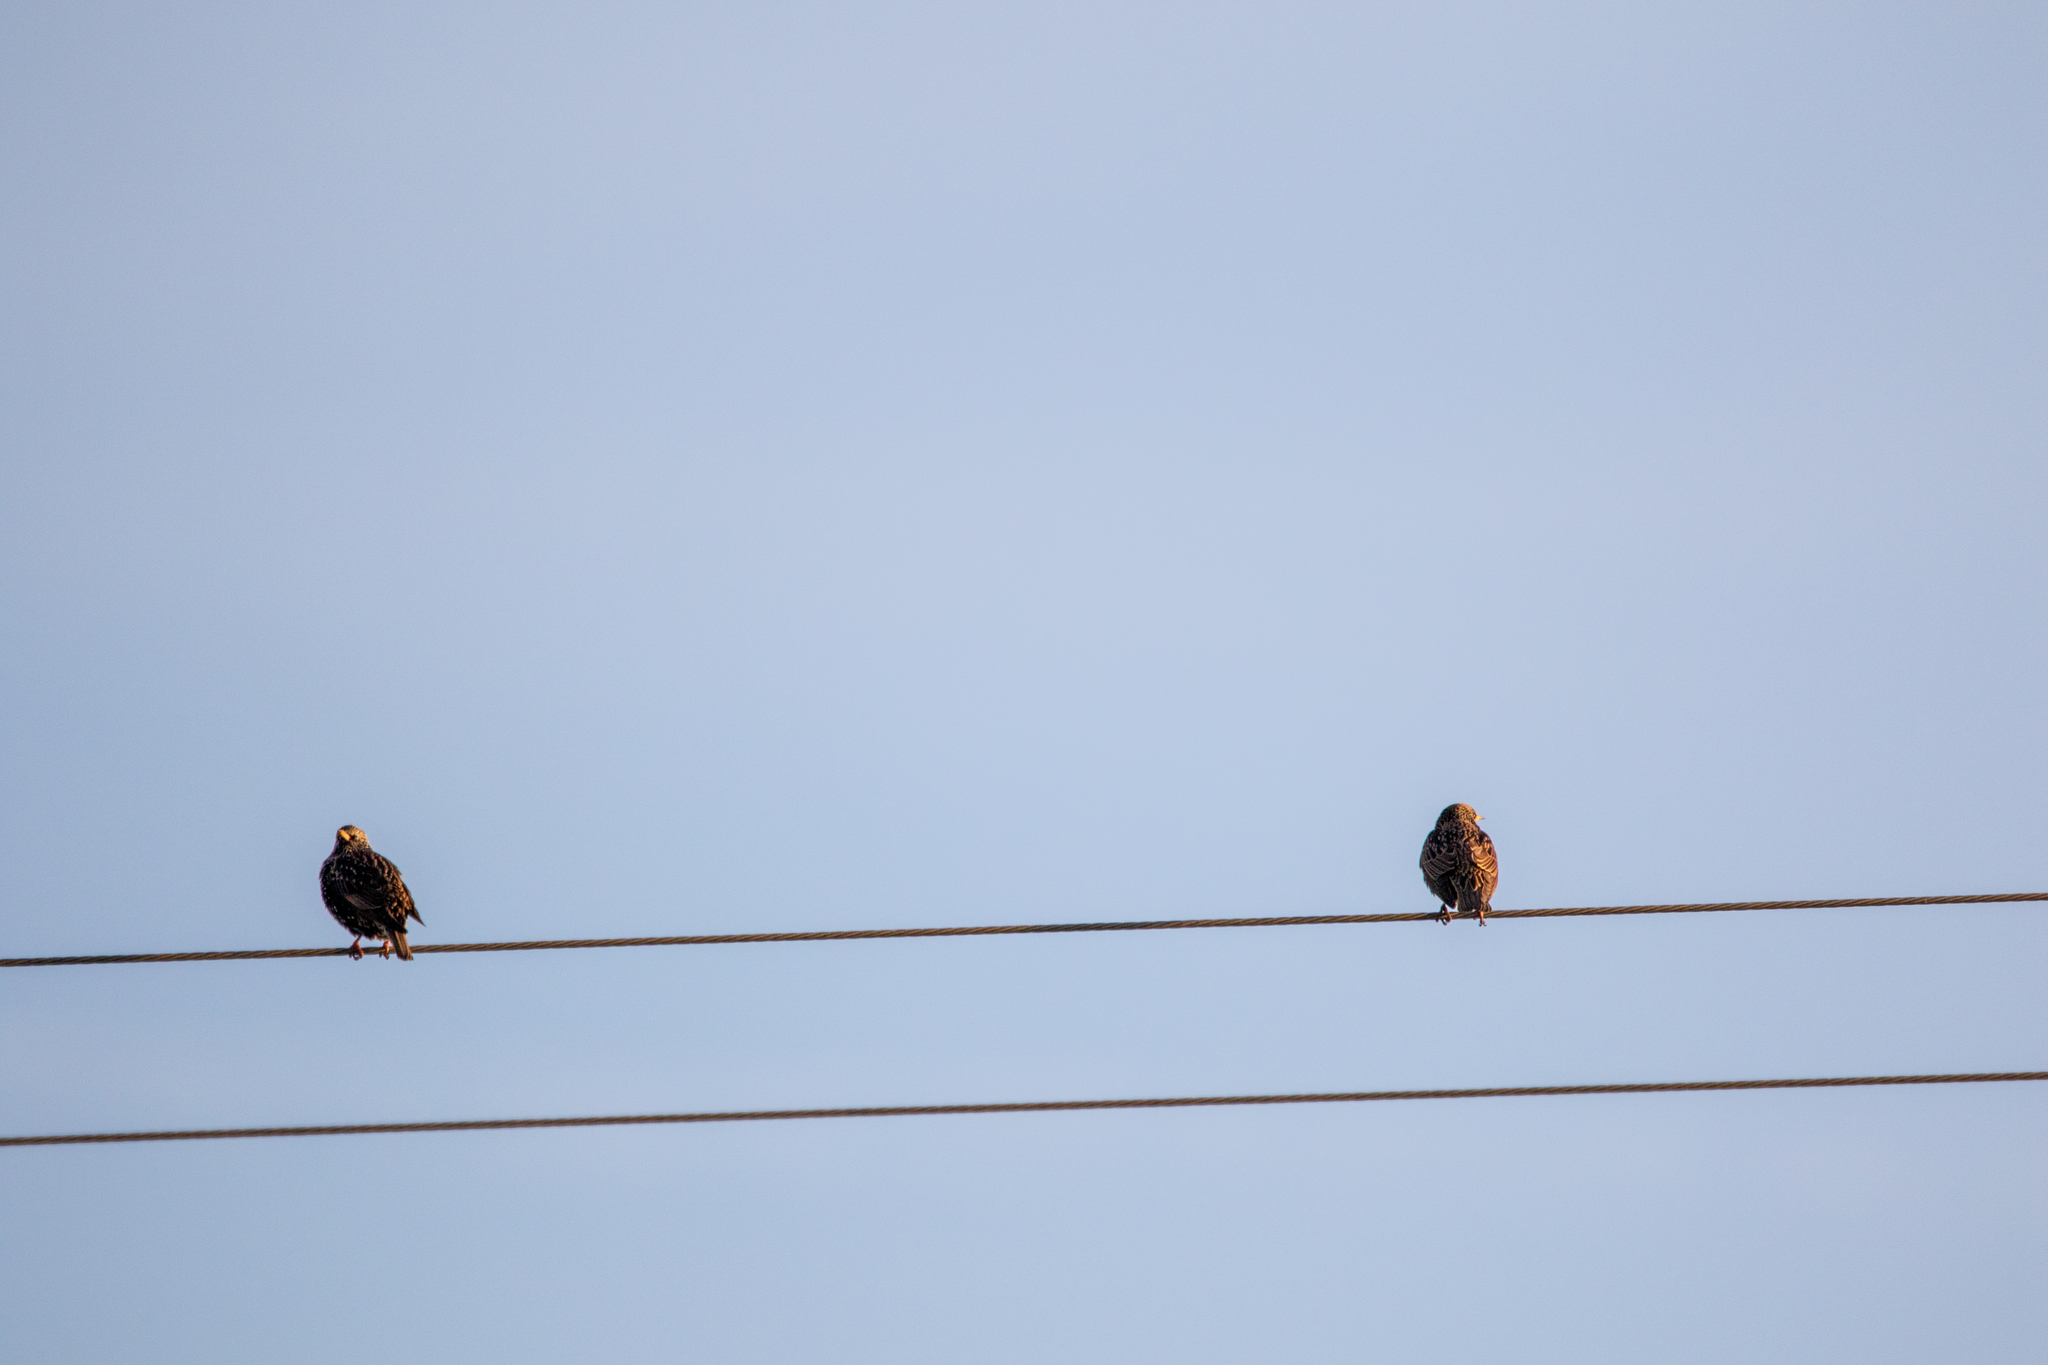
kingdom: Animalia
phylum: Chordata
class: Aves
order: Passeriformes
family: Sturnidae
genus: Sturnus
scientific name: Sturnus vulgaris
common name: Common starling
